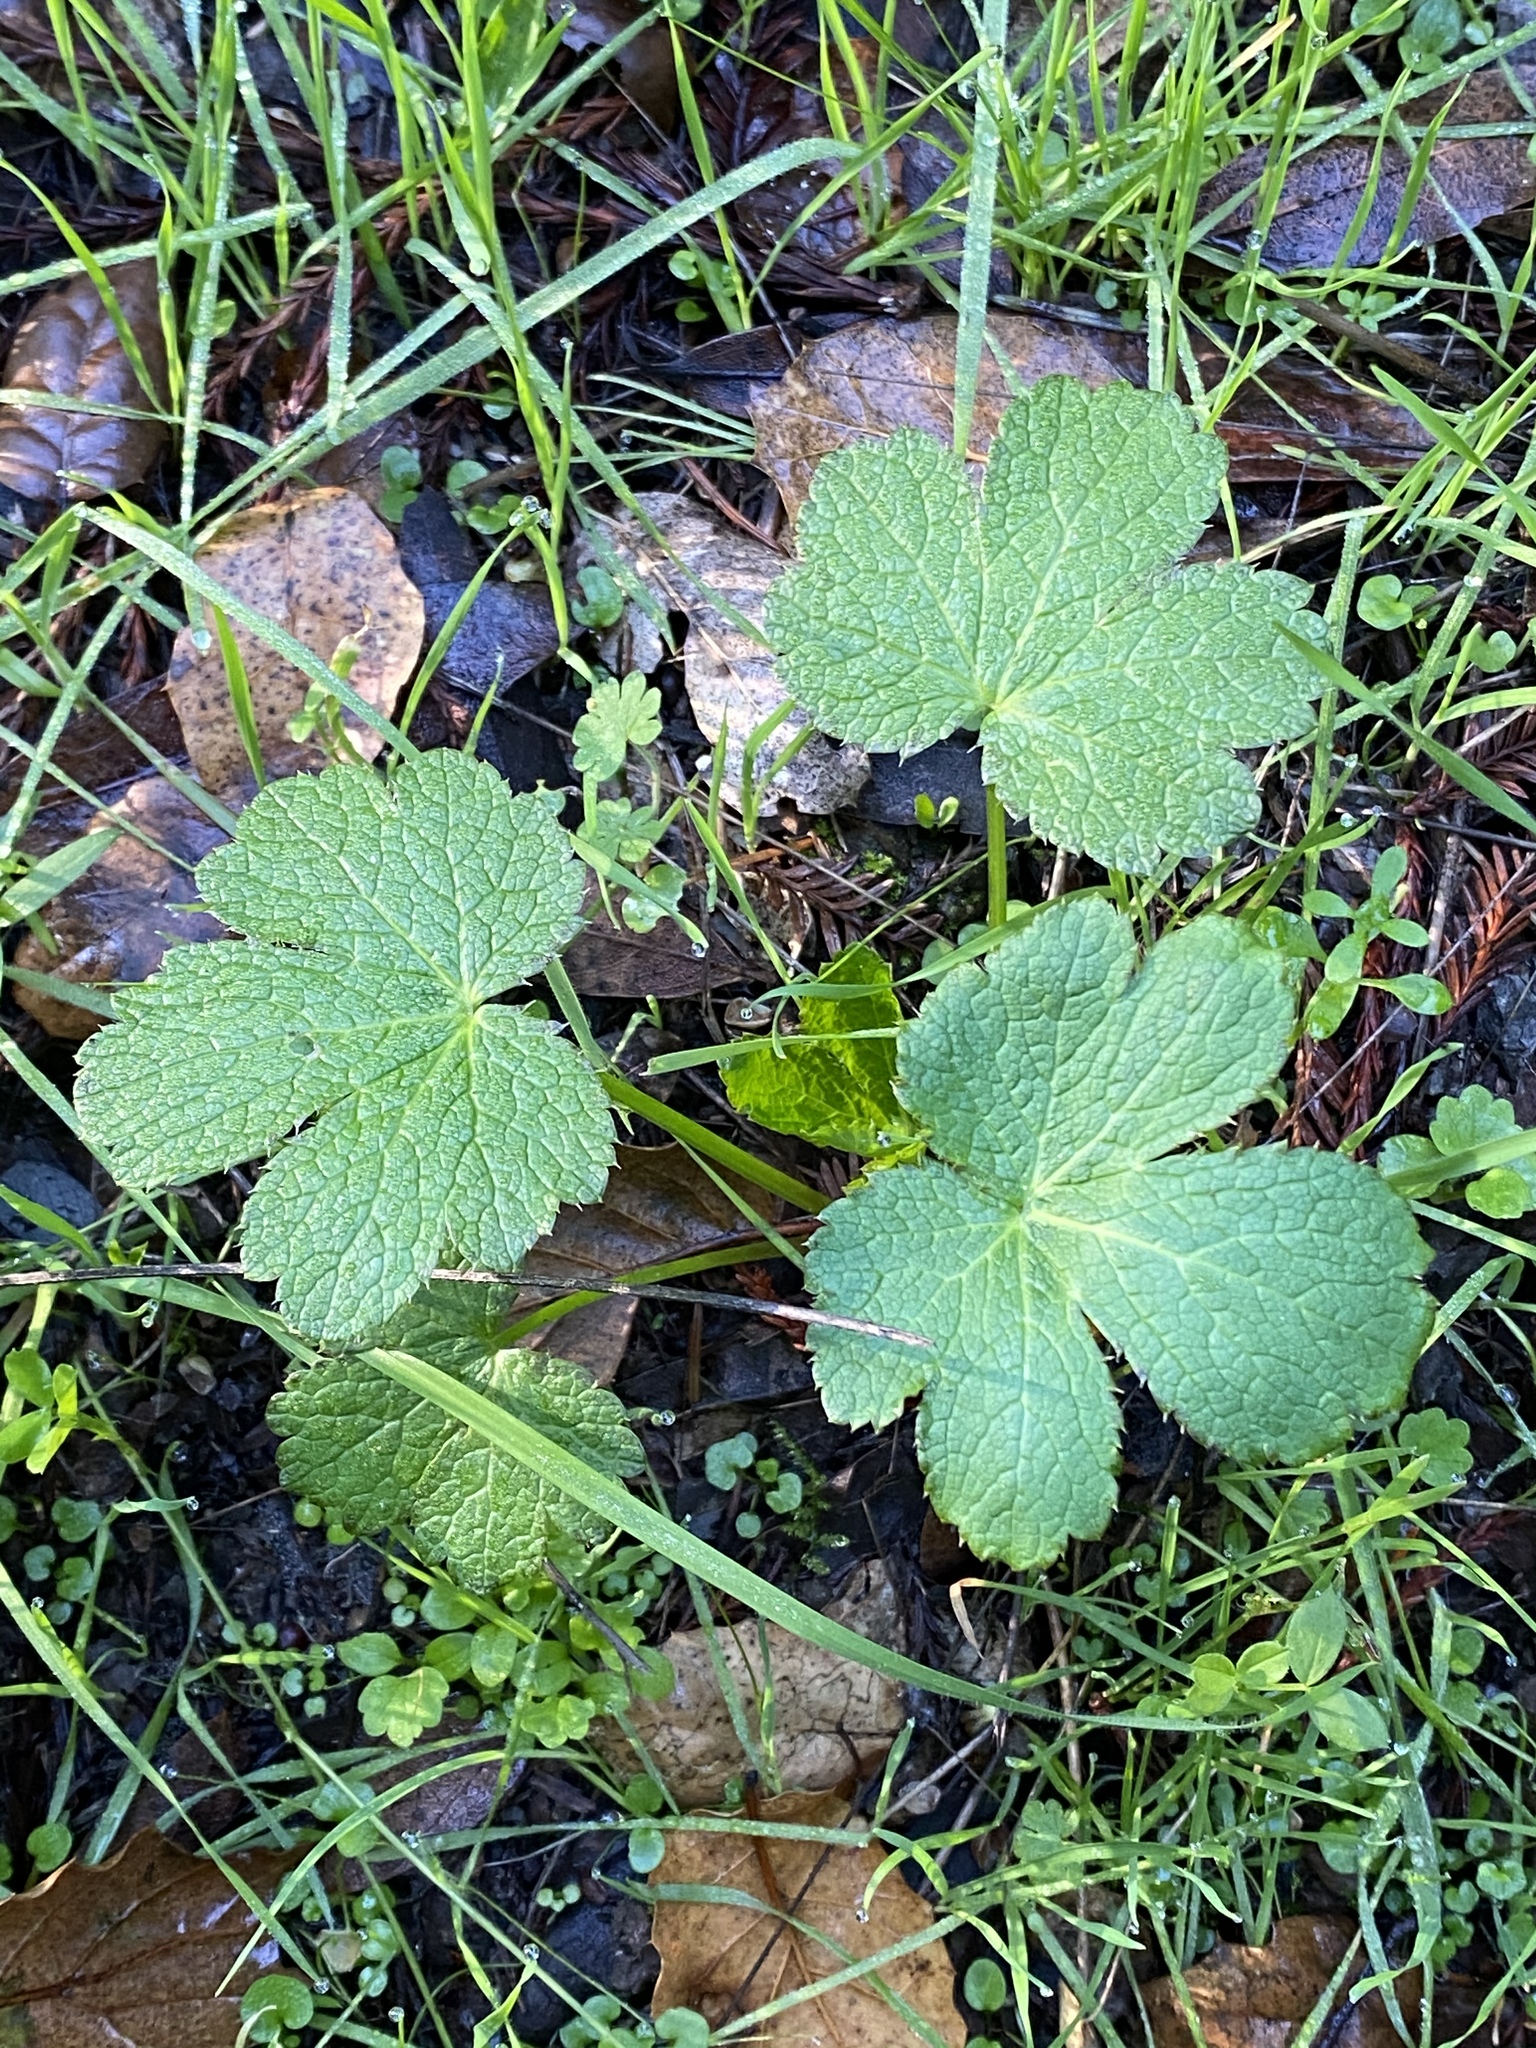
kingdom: Plantae
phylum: Tracheophyta
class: Magnoliopsida
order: Apiales
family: Apiaceae
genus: Sanicula
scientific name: Sanicula crassicaulis
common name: Western snakeroot
